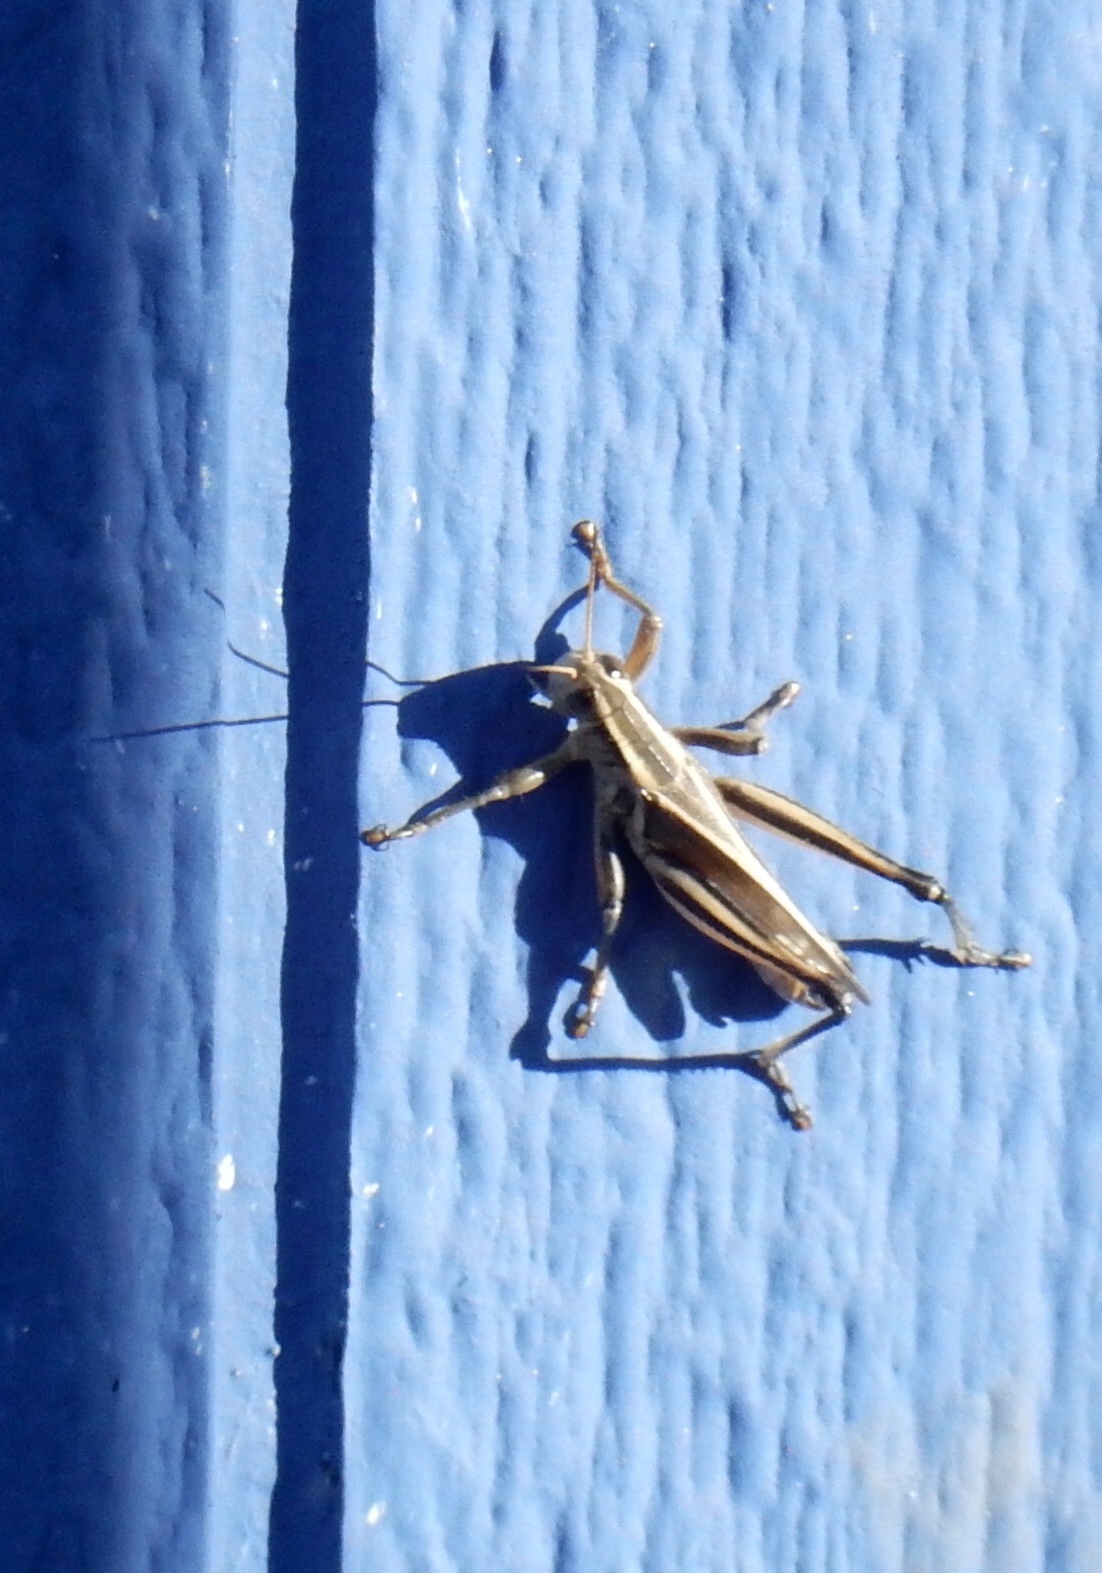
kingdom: Animalia
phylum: Arthropoda
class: Insecta
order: Orthoptera
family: Acrididae
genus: Melanoplus
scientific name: Melanoplus bivittatus
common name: Two-striped grasshopper
